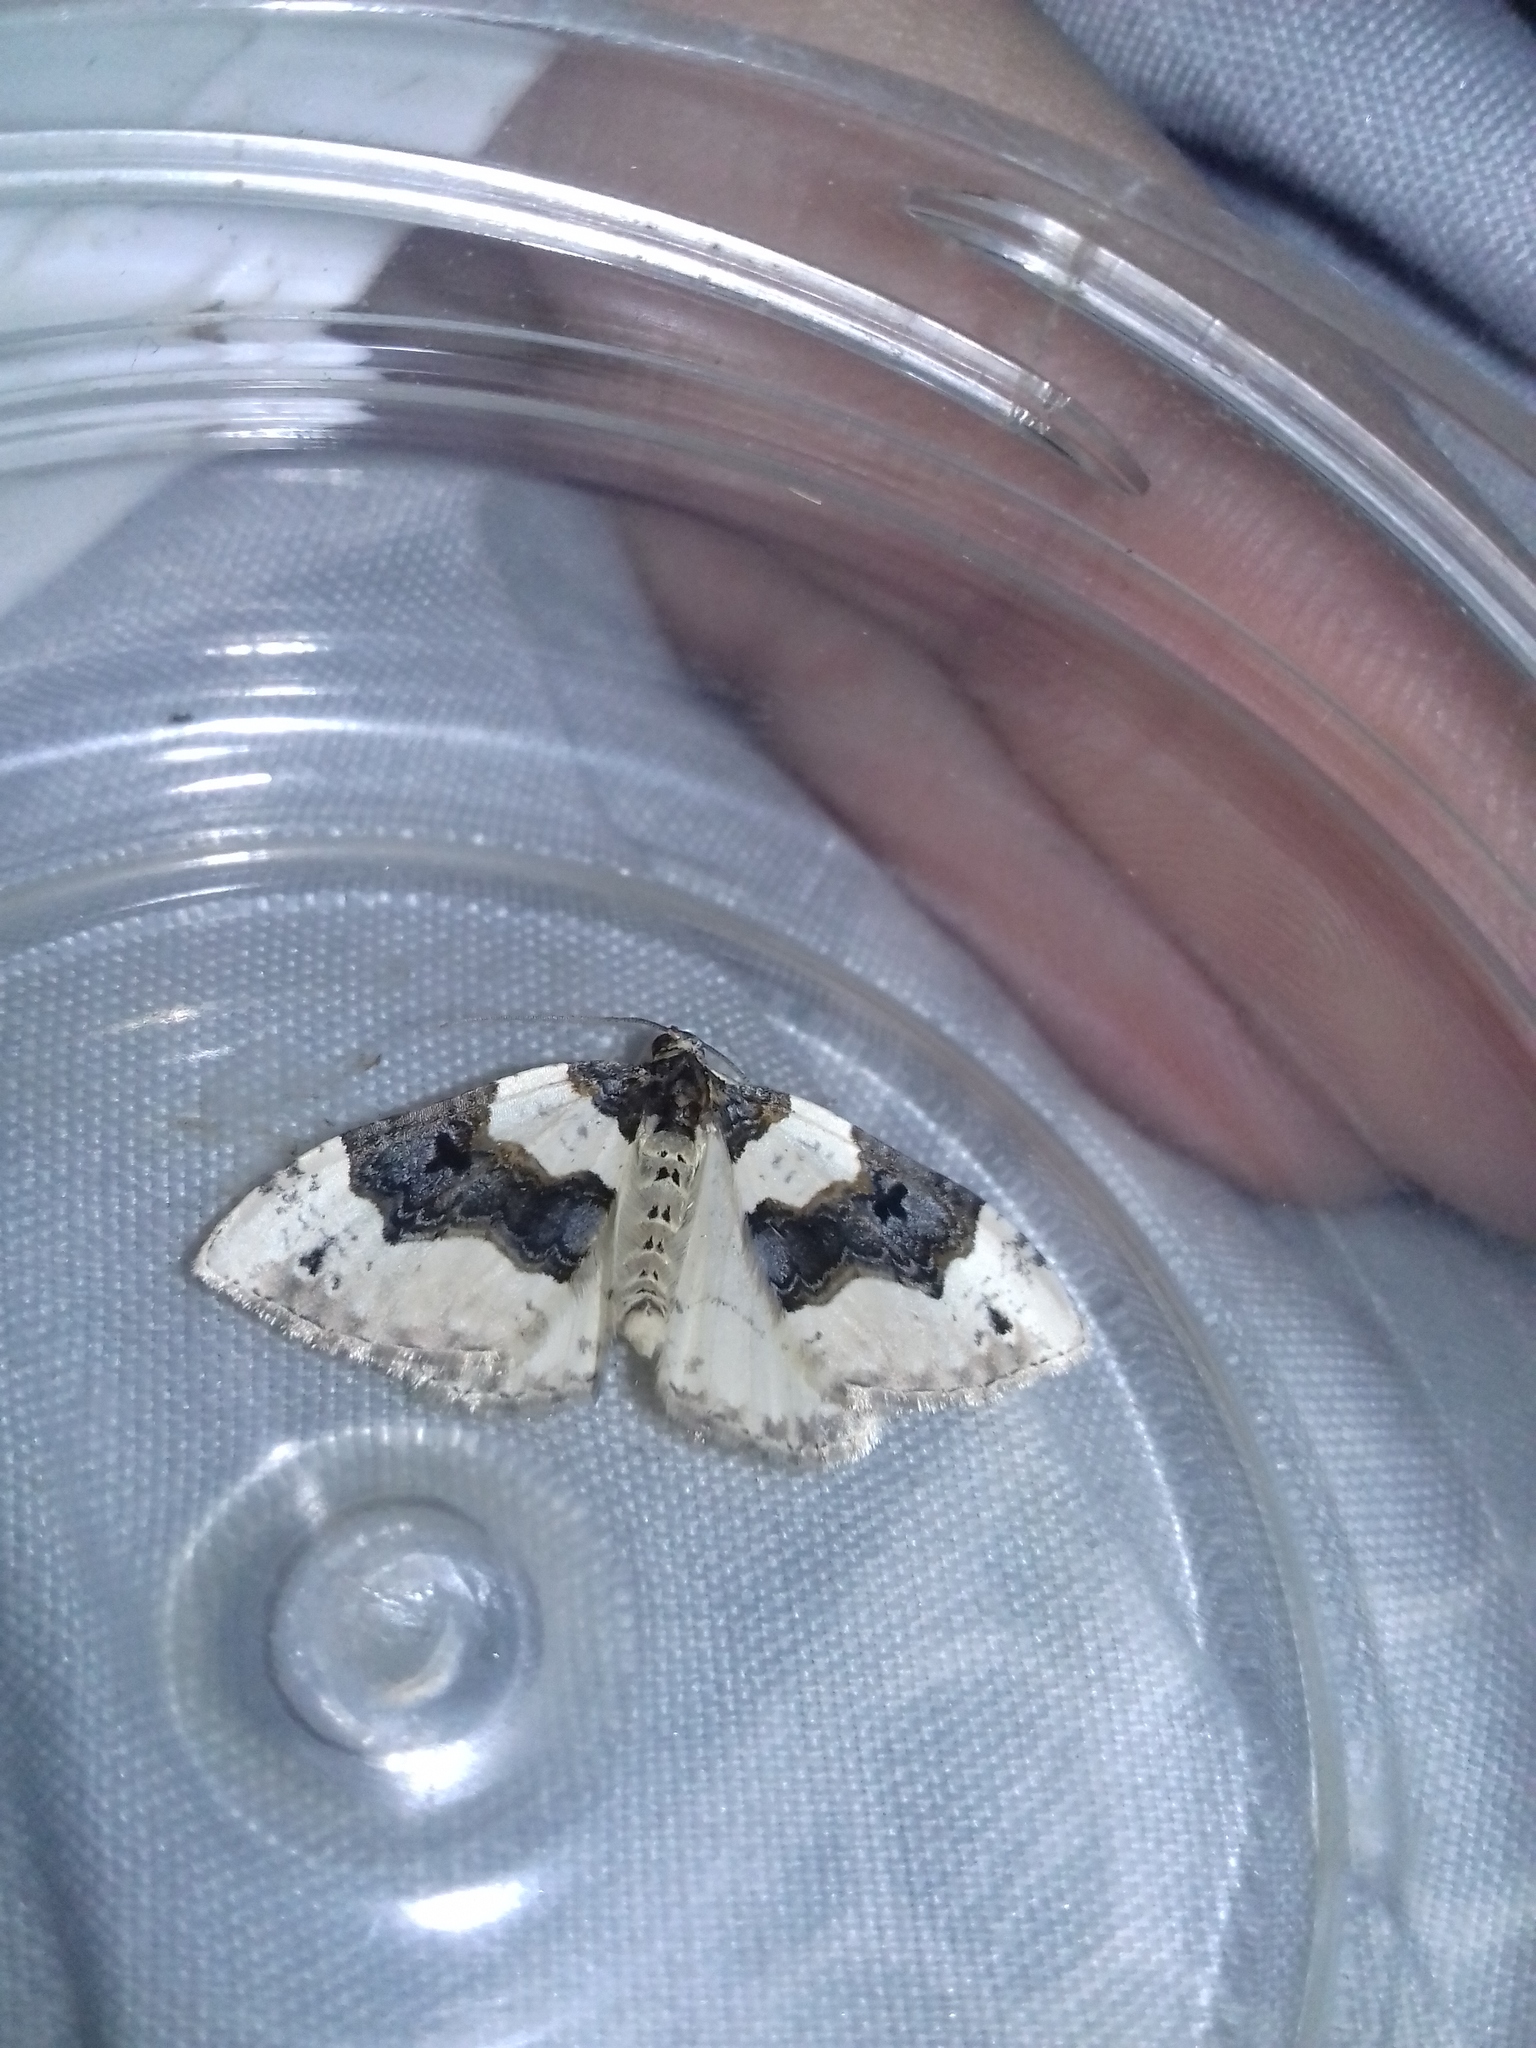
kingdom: Animalia
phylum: Arthropoda
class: Insecta
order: Lepidoptera
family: Geometridae
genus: Cosmorhoe
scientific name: Cosmorhoe ocellata
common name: Purple bar
